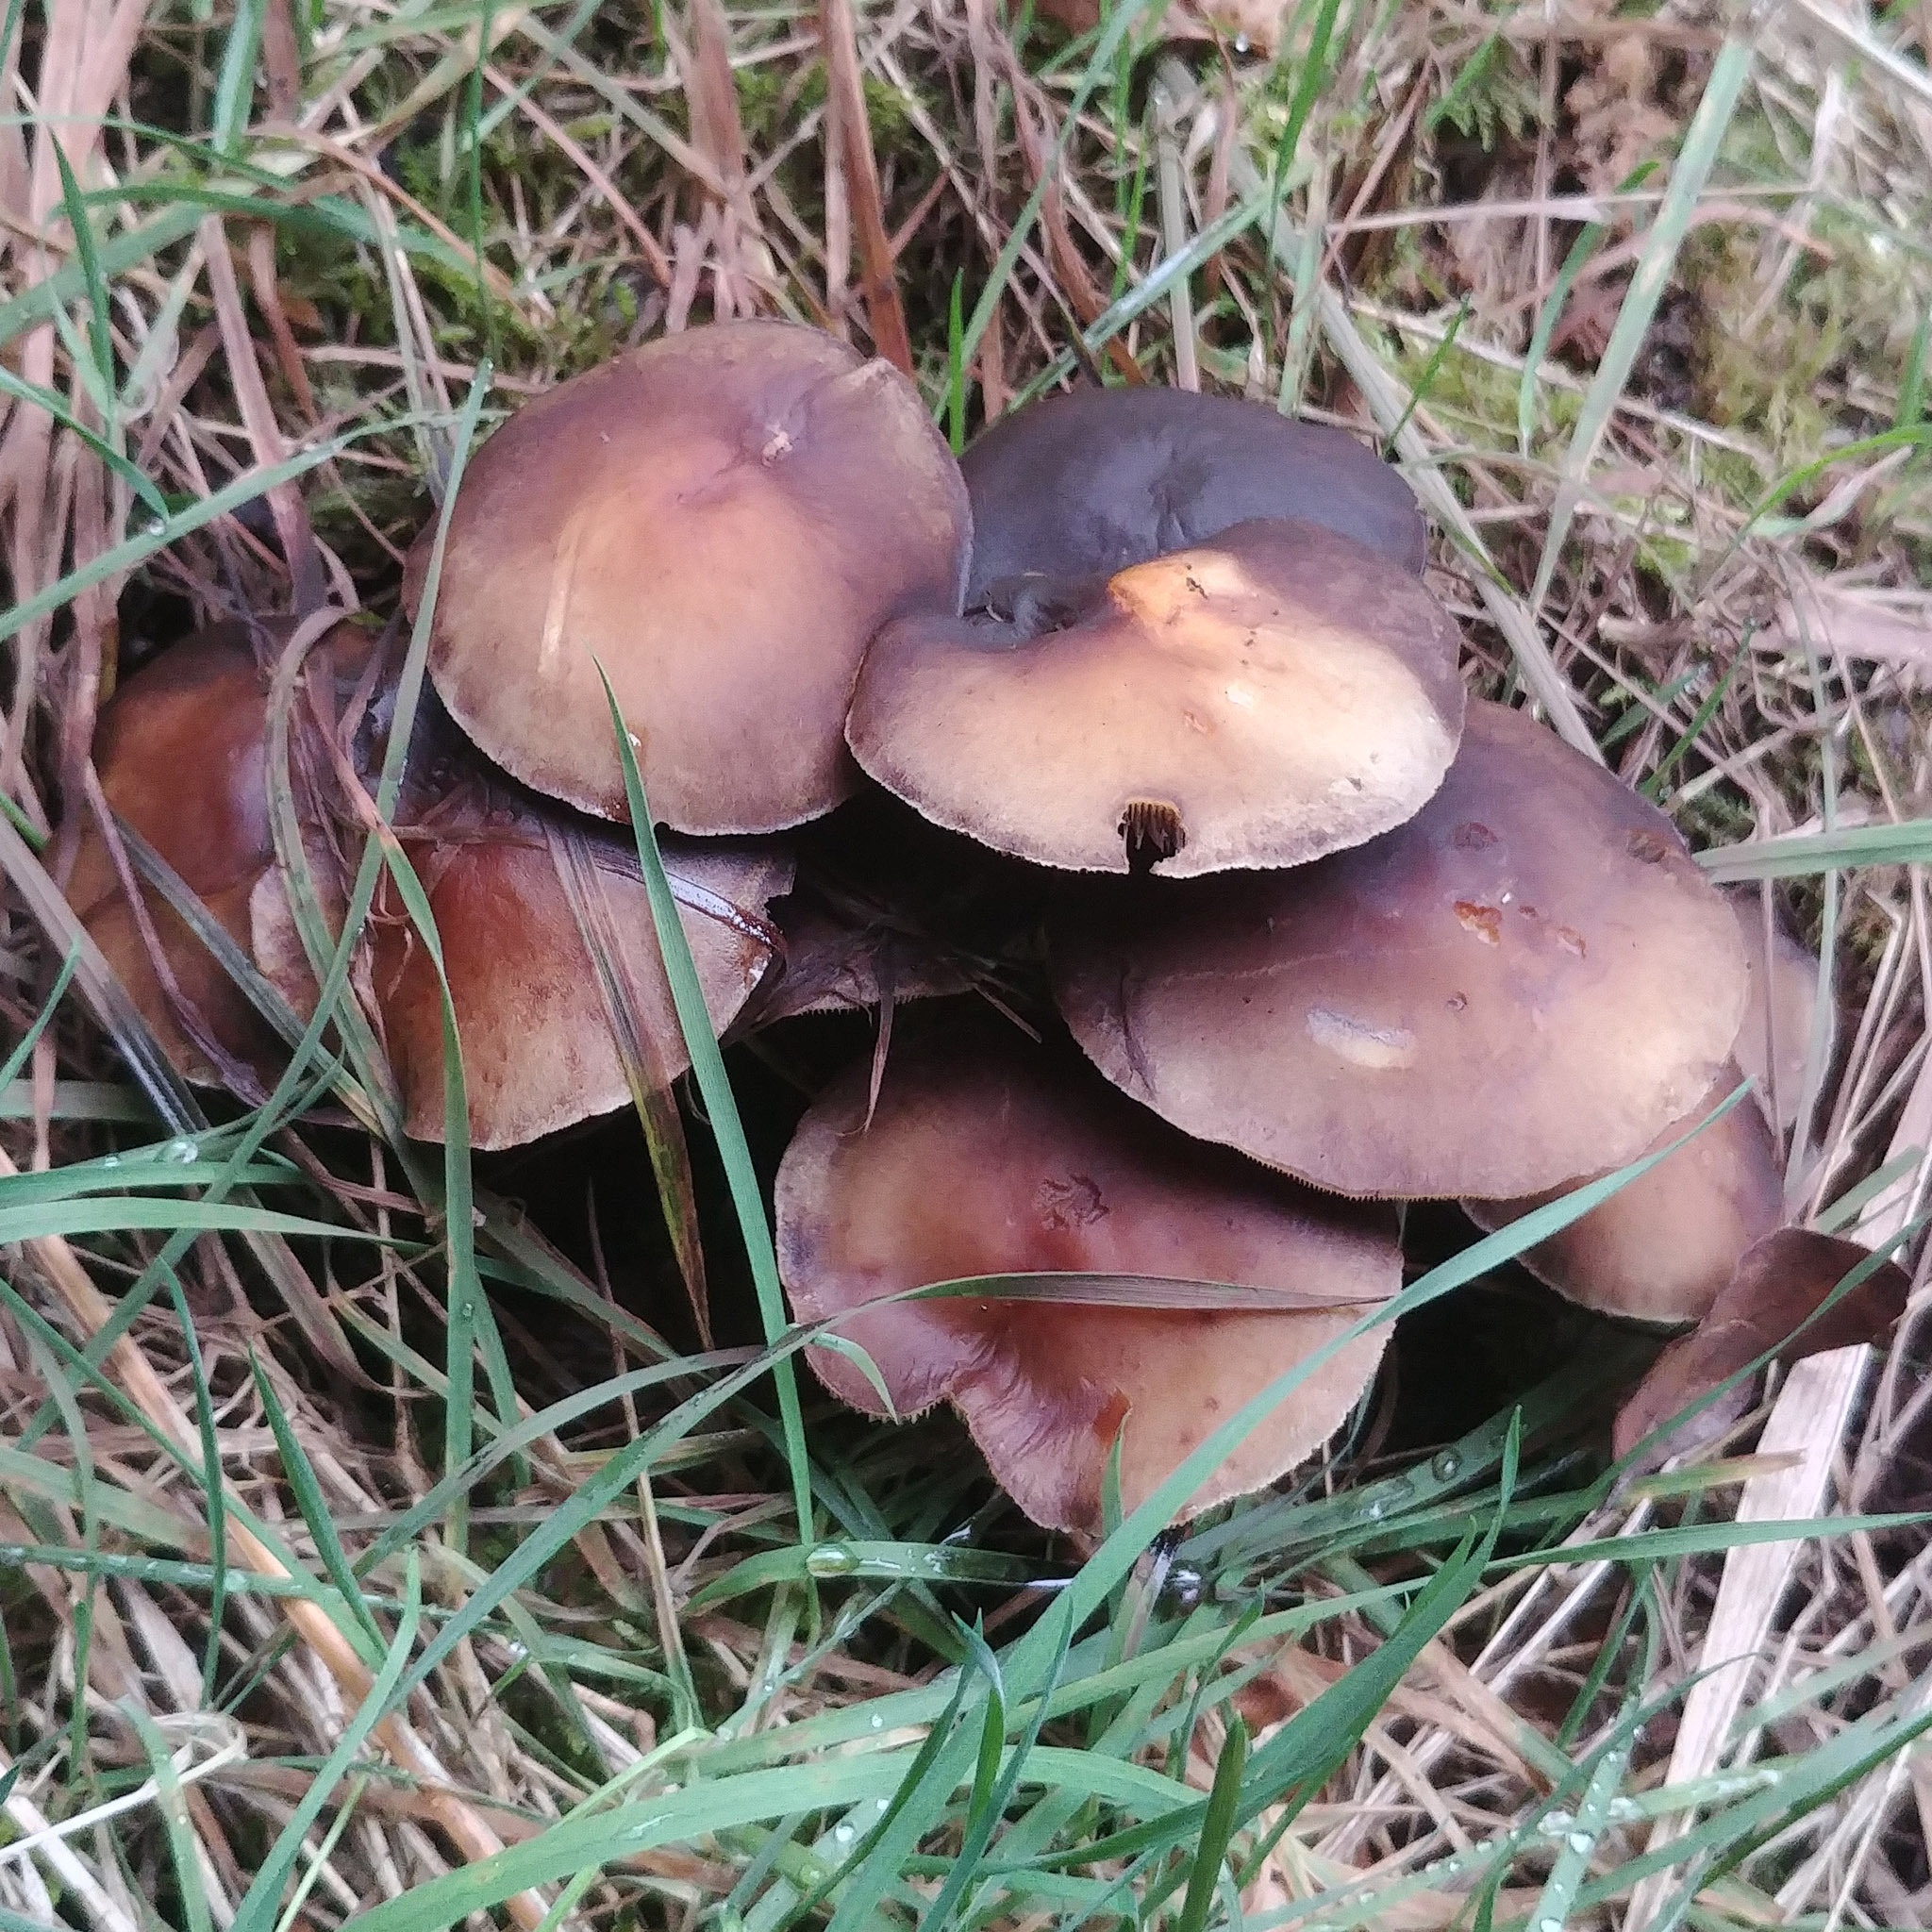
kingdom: Fungi
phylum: Basidiomycota
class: Agaricomycetes
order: Agaricales
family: Strophariaceae
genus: Hypholoma
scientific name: Hypholoma fasciculare
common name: Sulphur tuft
